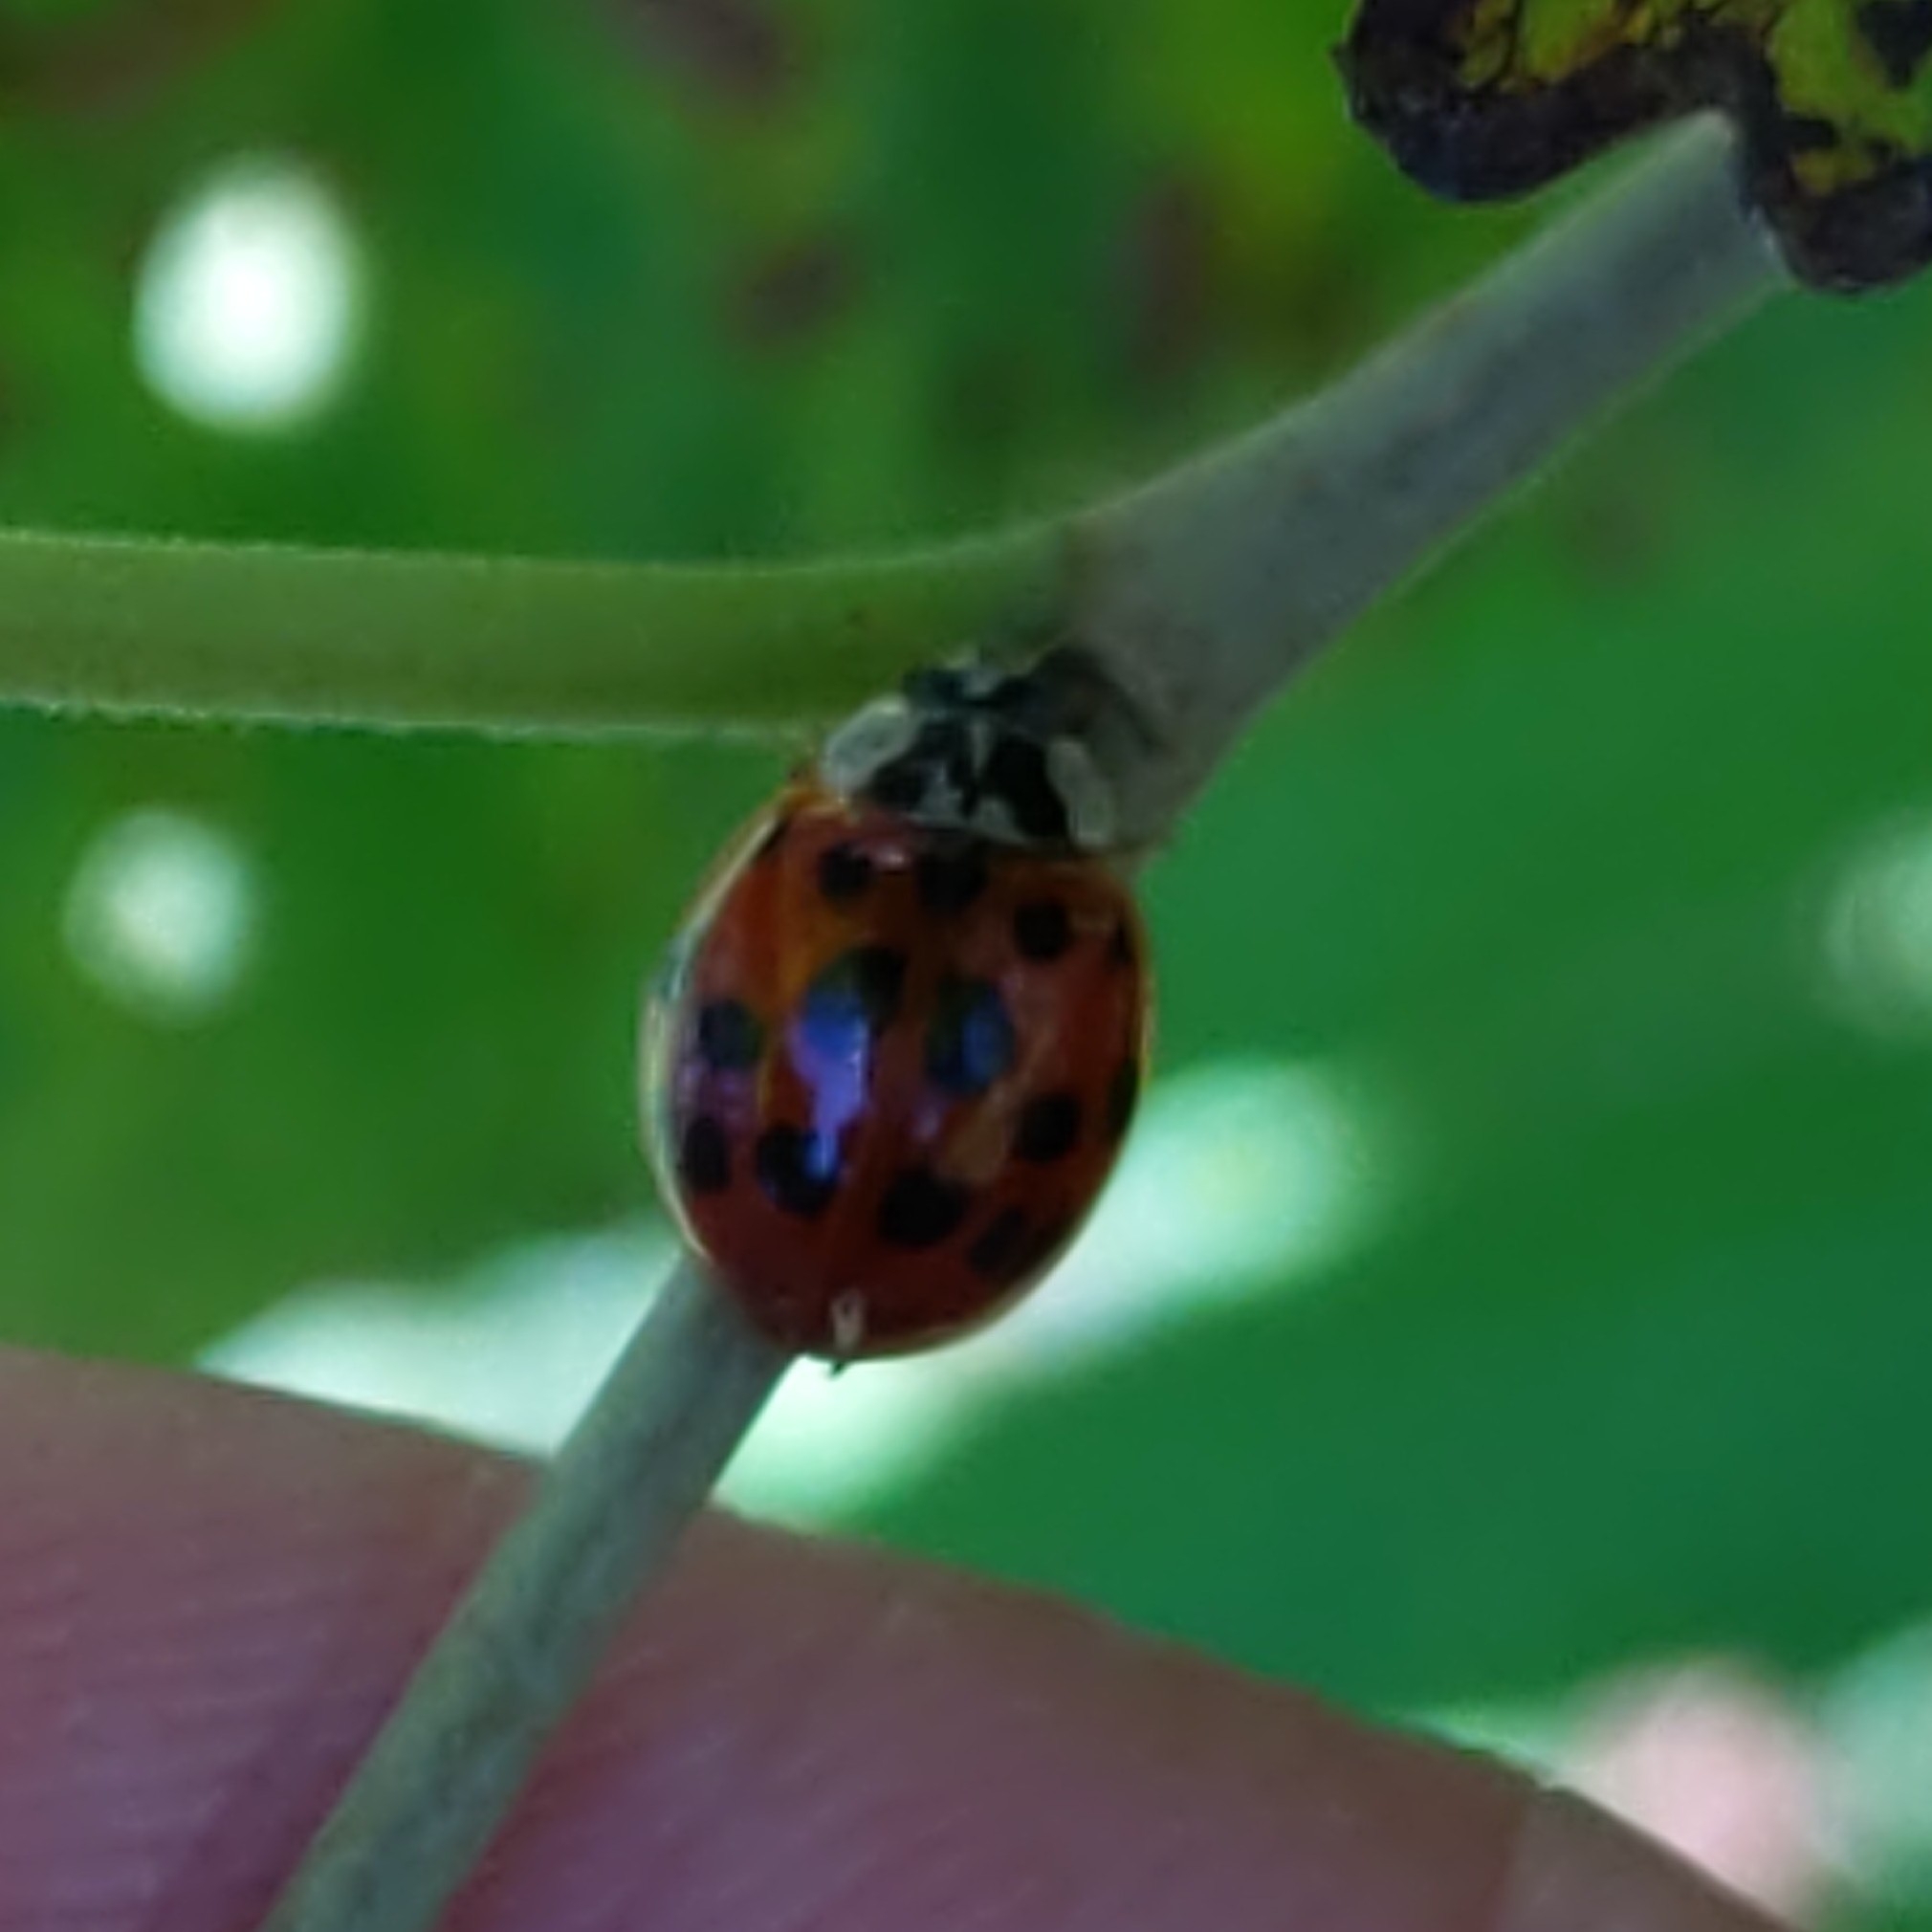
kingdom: Animalia
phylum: Arthropoda
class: Insecta
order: Coleoptera
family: Coccinellidae
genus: Harmonia
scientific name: Harmonia axyridis
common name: Harlequin ladybird
